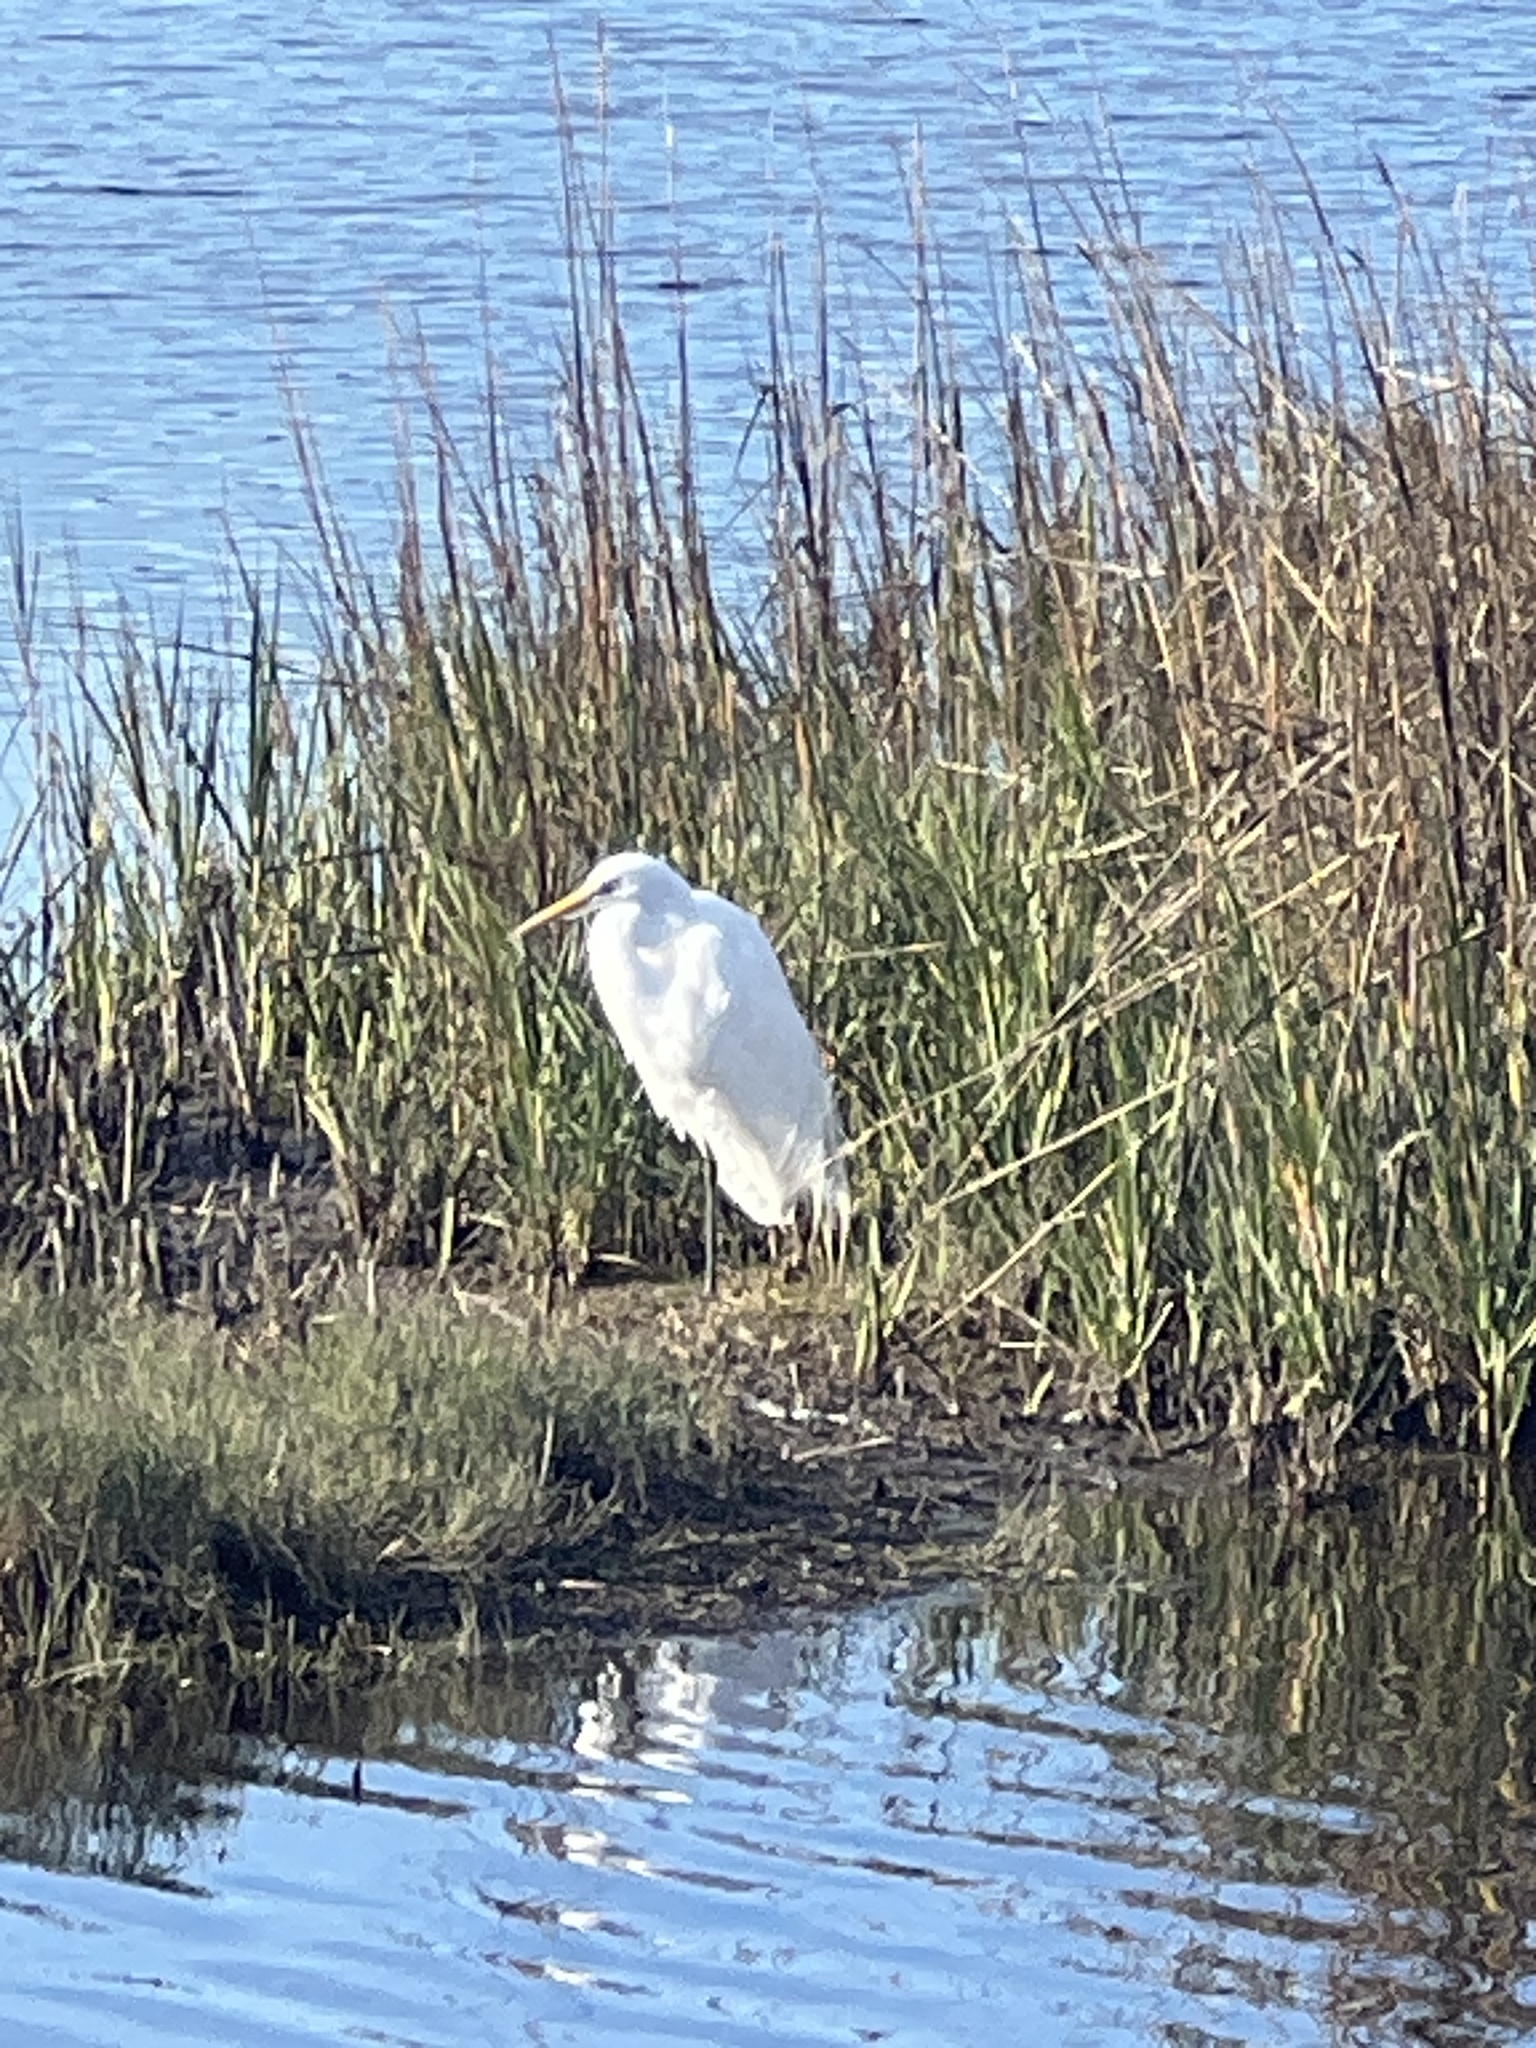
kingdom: Animalia
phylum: Chordata
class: Aves
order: Pelecaniformes
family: Ardeidae
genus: Ardea
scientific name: Ardea alba
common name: Great egret
